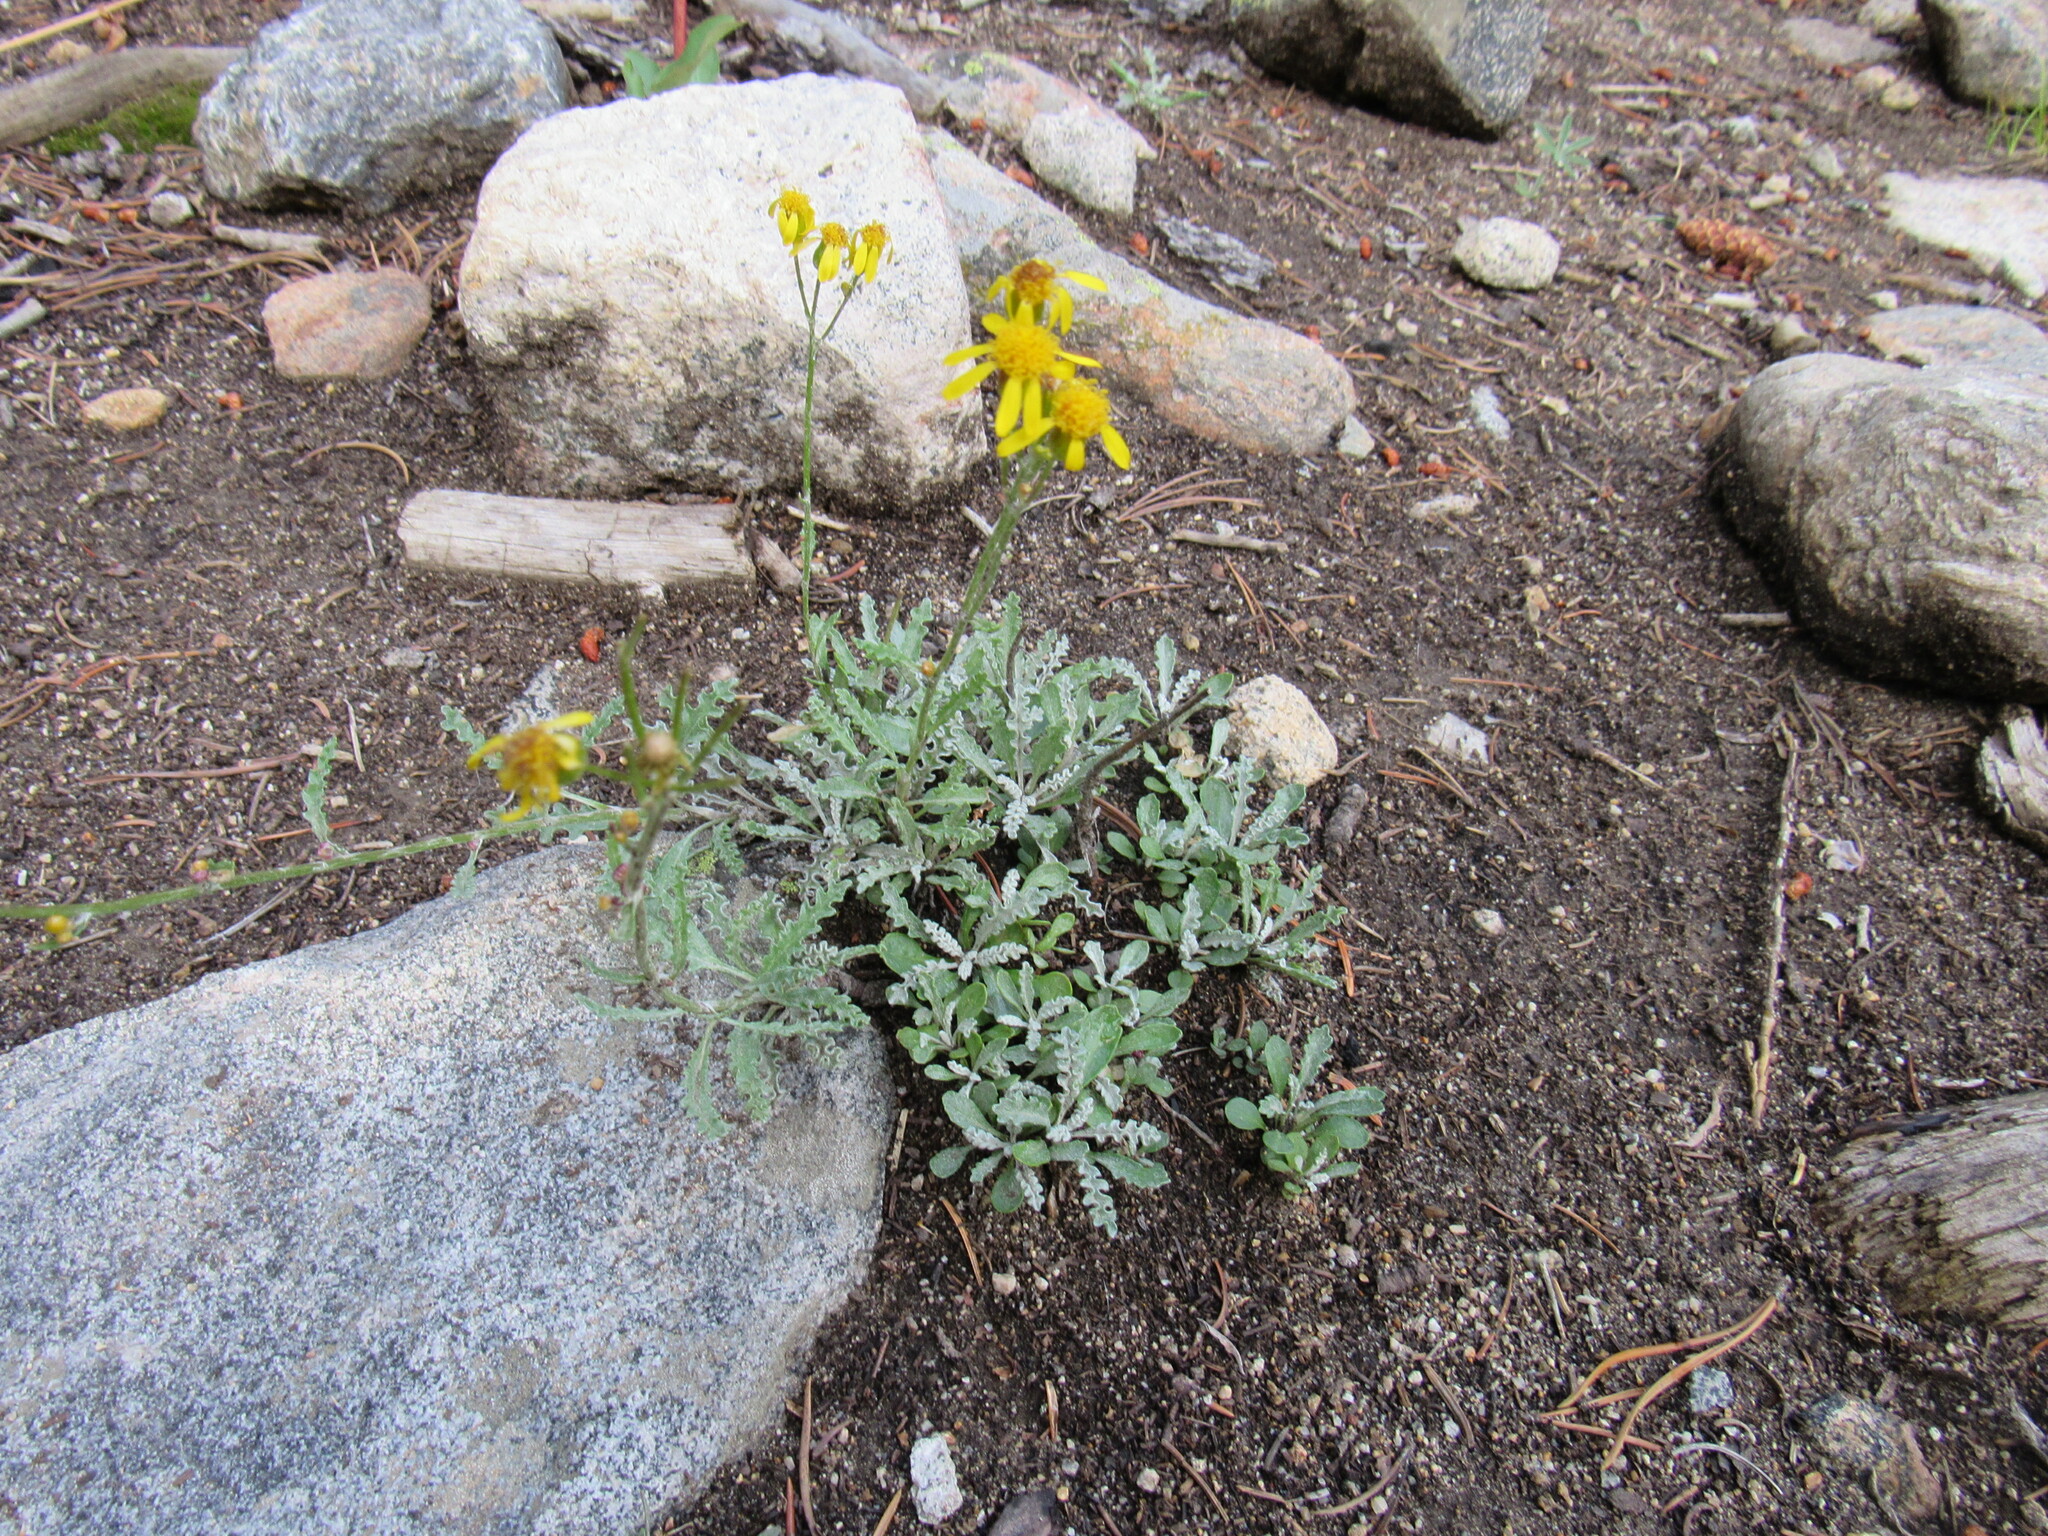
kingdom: Plantae
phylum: Tracheophyta
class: Magnoliopsida
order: Asterales
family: Asteraceae
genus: Packera
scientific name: Packera fendleri
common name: Notch-leaf butterweed
